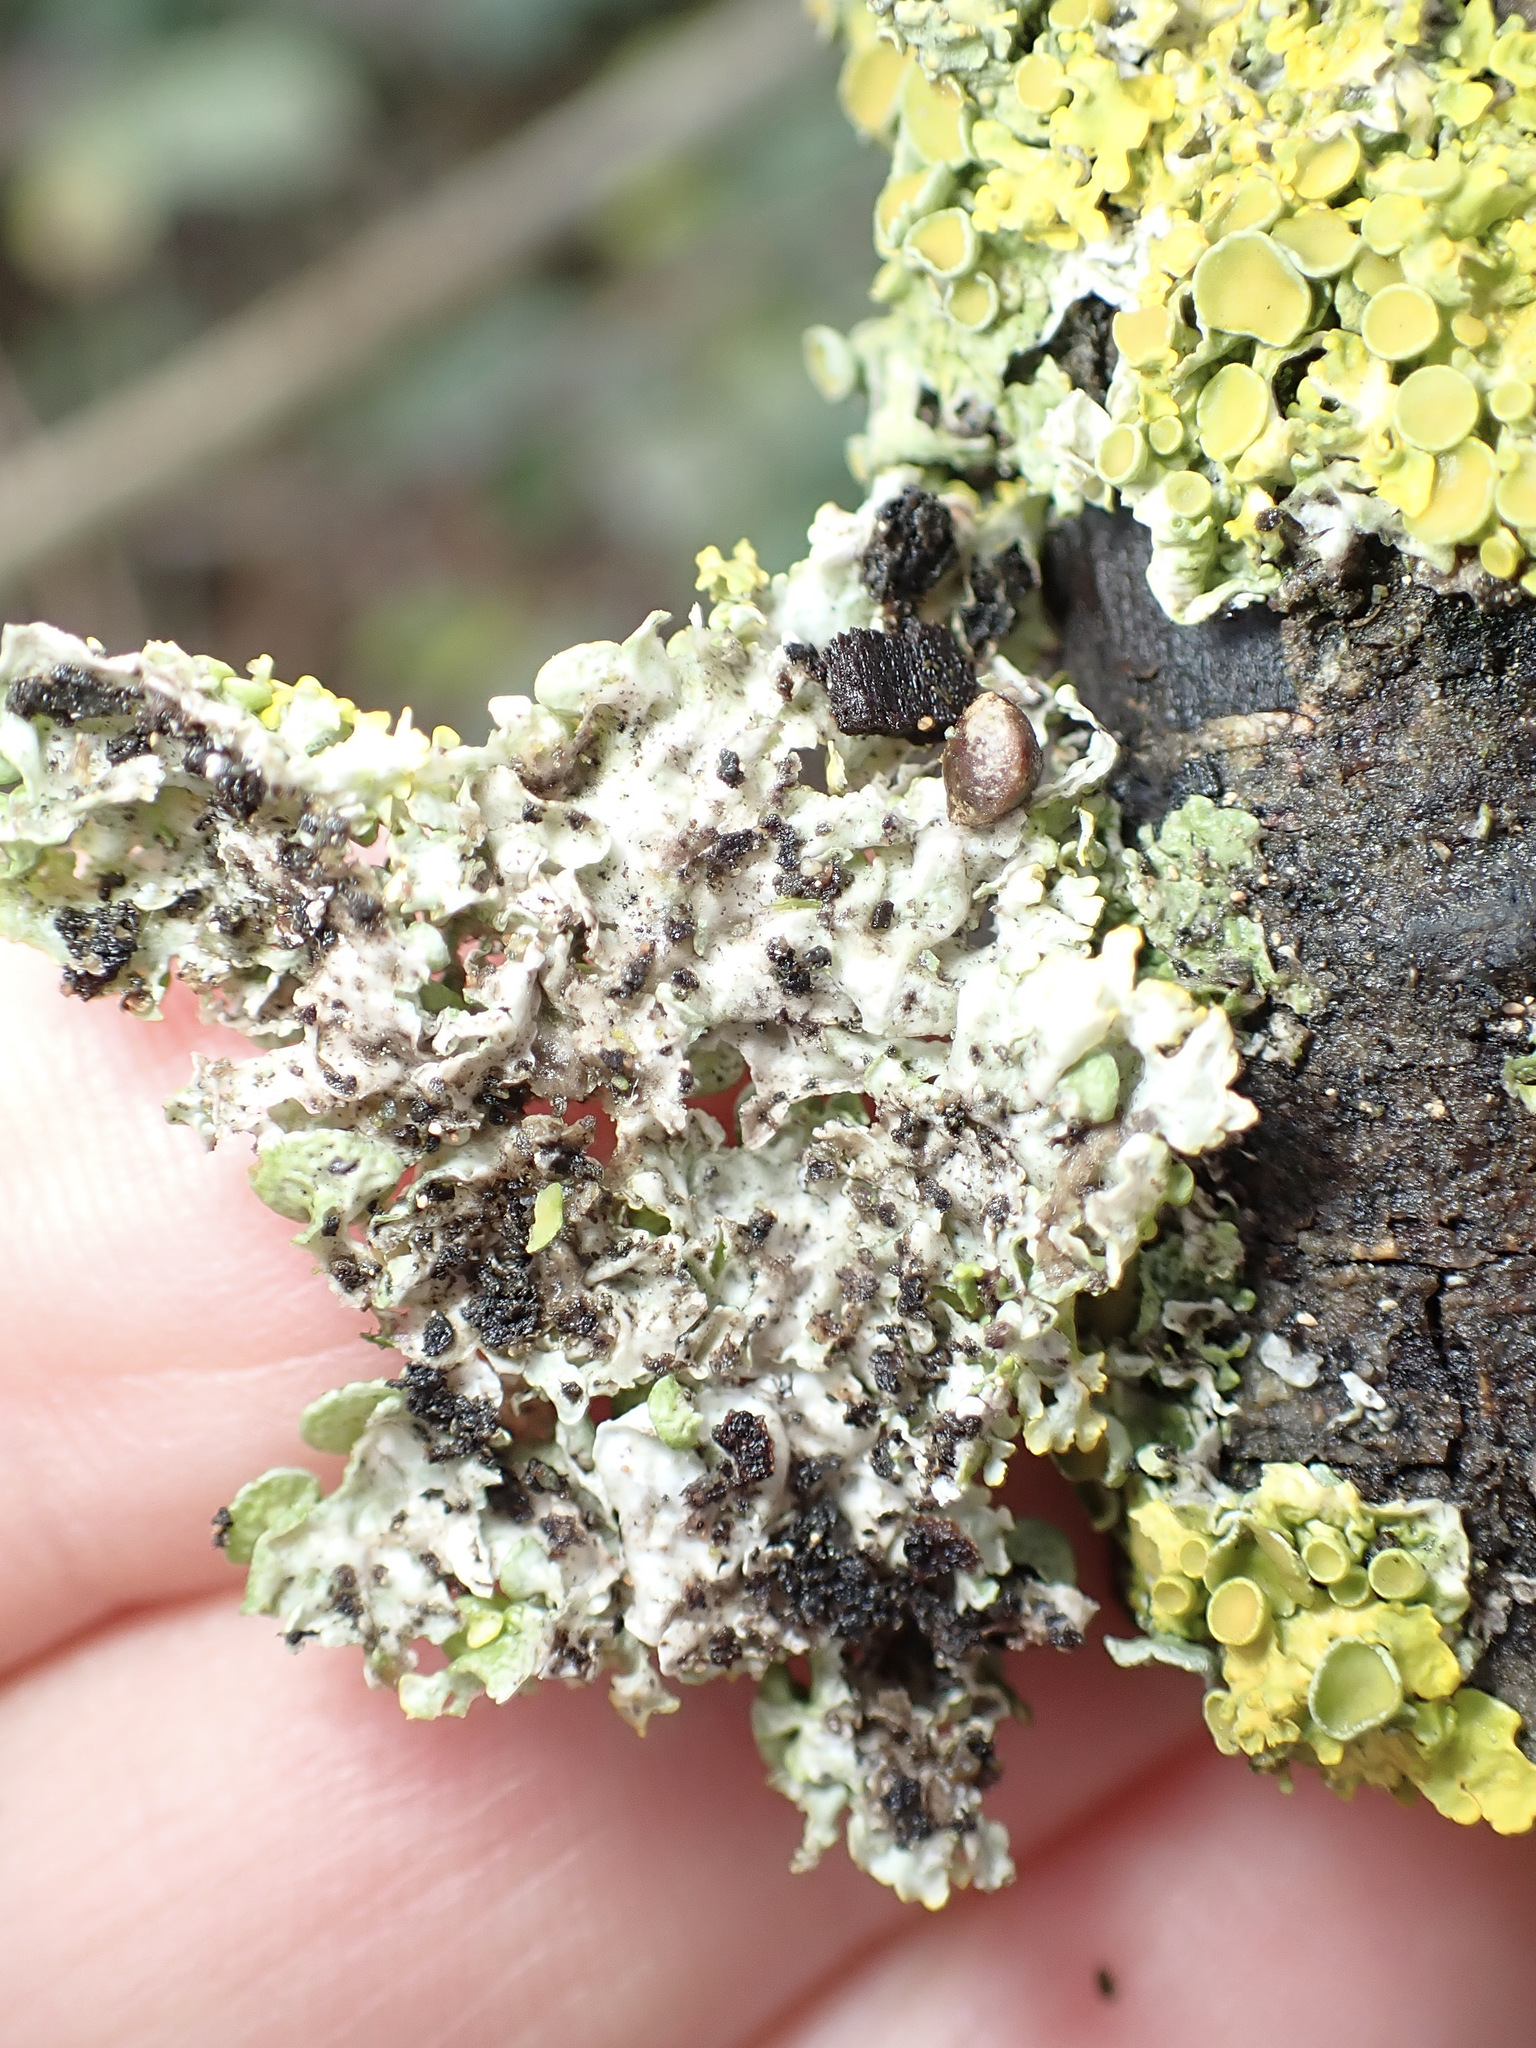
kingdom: Fungi
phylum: Ascomycota
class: Lecanoromycetes
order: Teloschistales
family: Teloschistaceae
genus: Xanthoria
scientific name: Xanthoria parietina
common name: Common orange lichen
